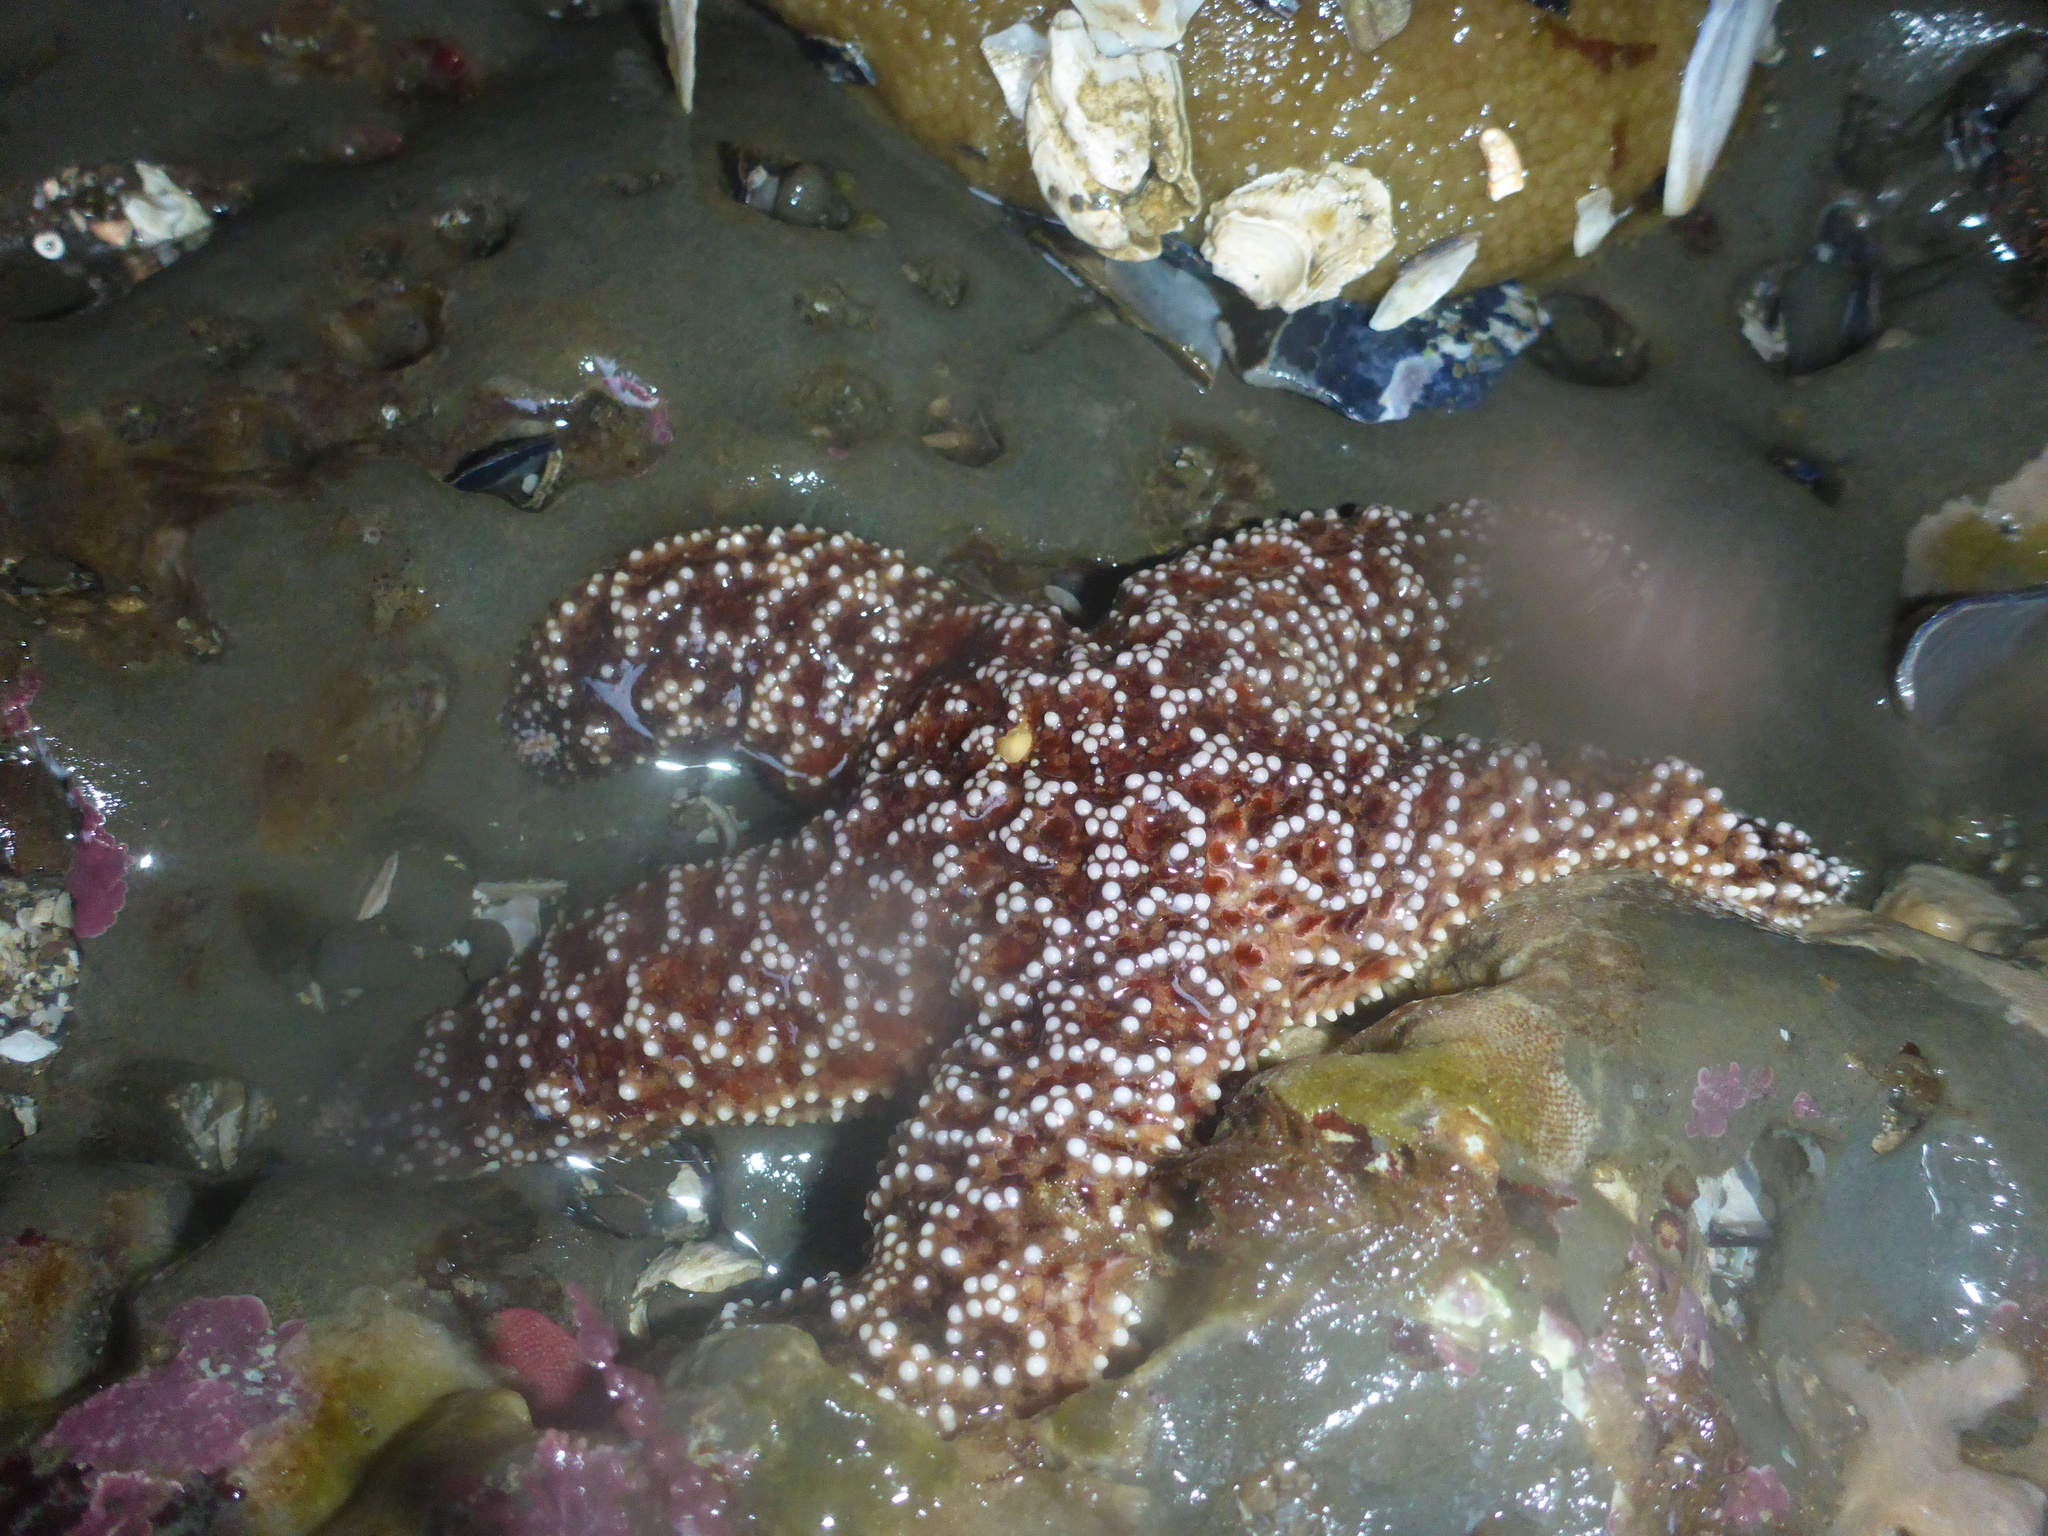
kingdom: Animalia
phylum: Echinodermata
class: Asteroidea
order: Forcipulatida
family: Asteriidae
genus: Pisaster
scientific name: Pisaster ochraceus
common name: Ochre stars
